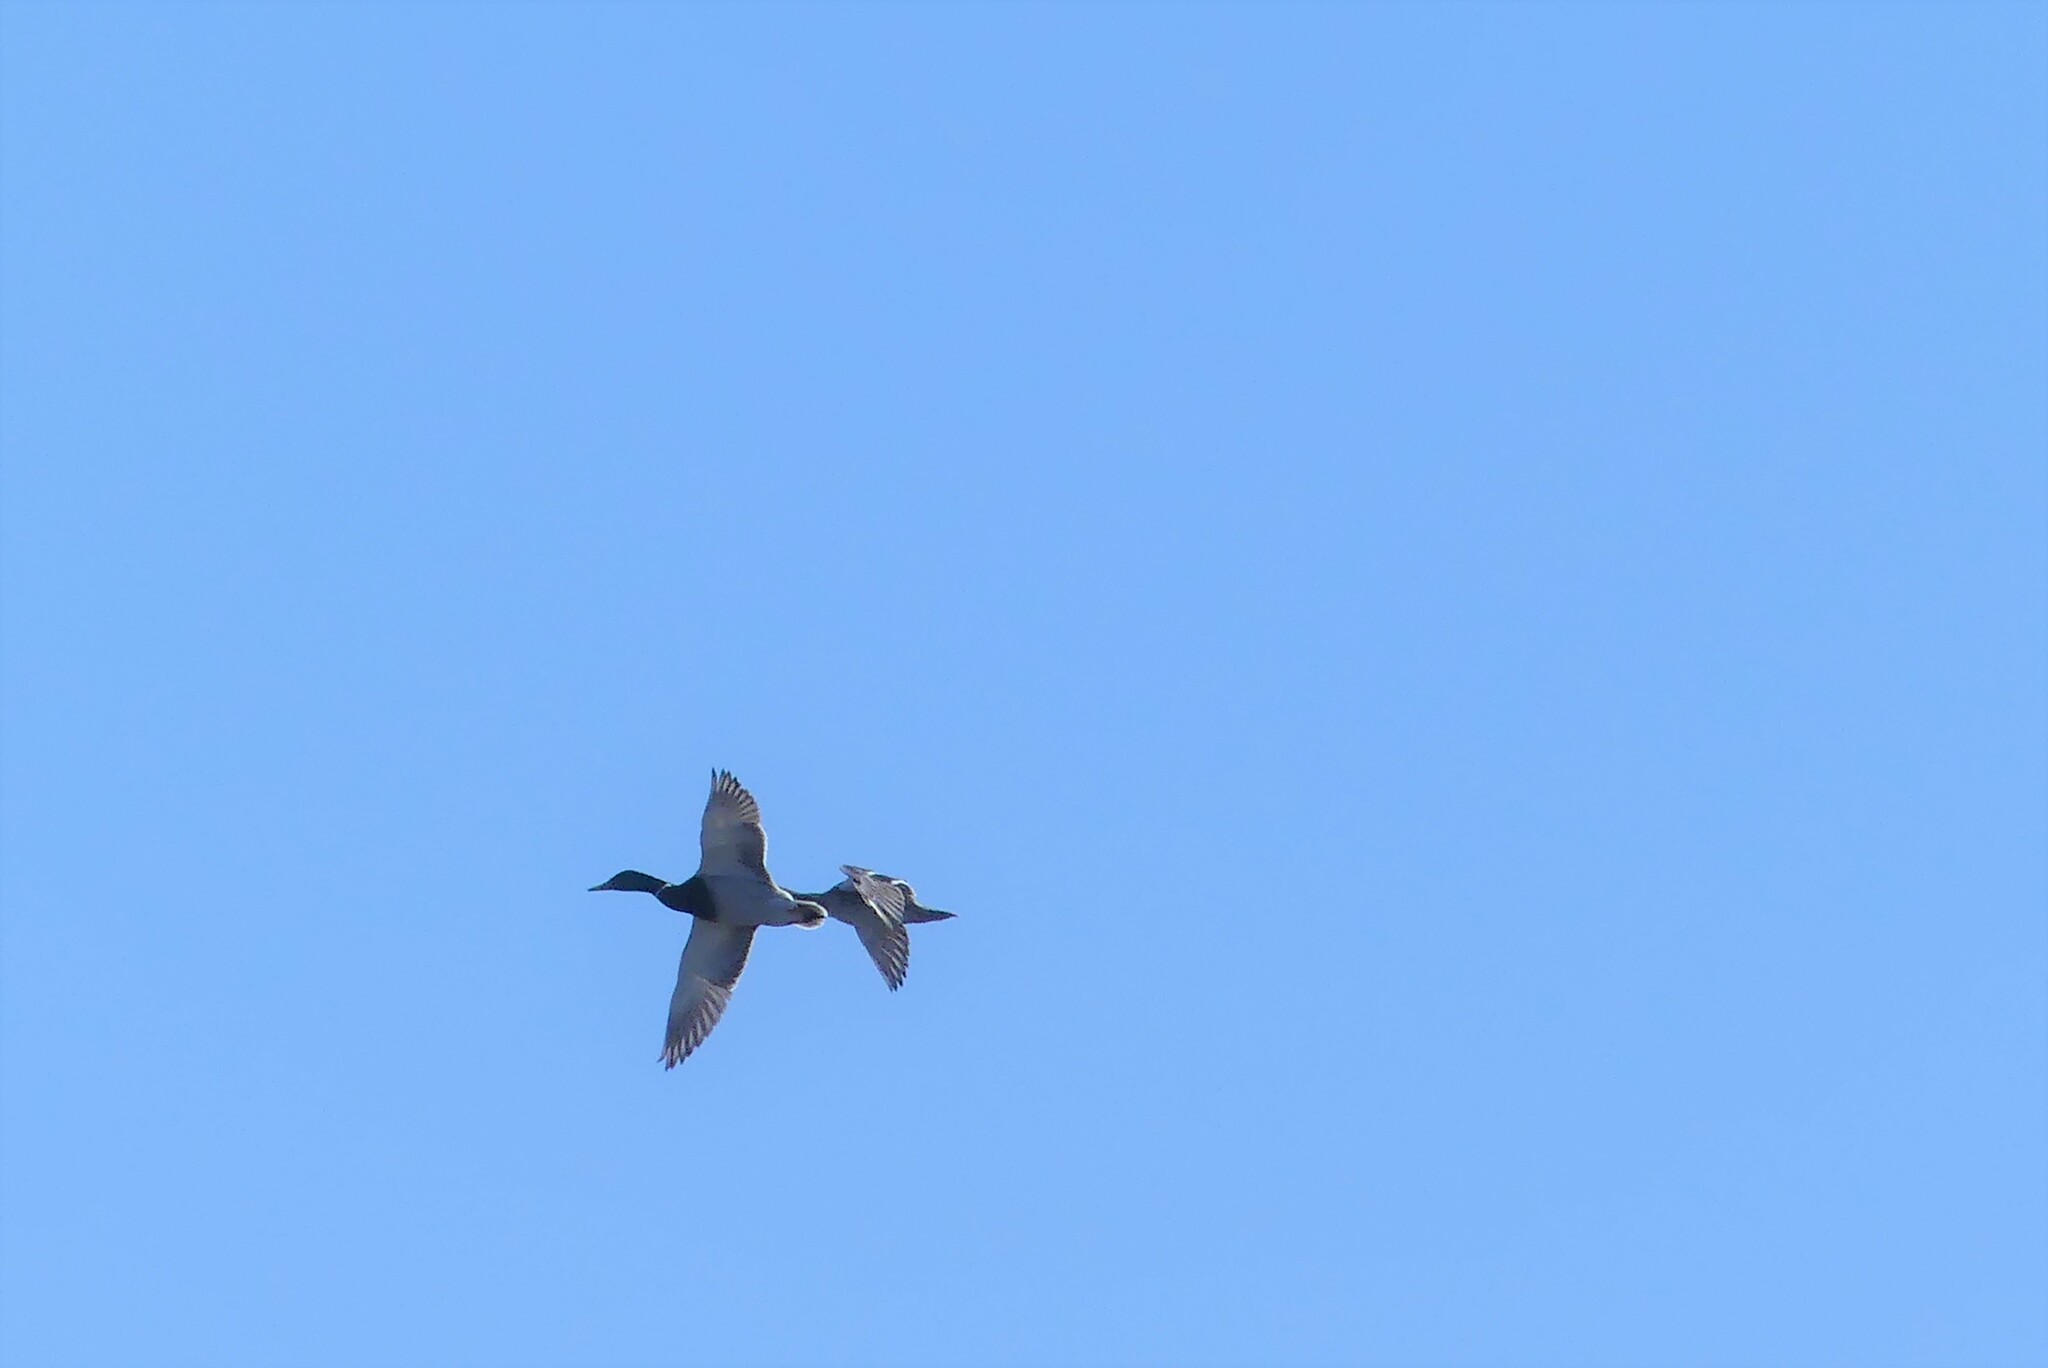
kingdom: Animalia
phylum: Chordata
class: Aves
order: Anseriformes
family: Anatidae
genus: Anas
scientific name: Anas platyrhynchos
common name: Mallard
